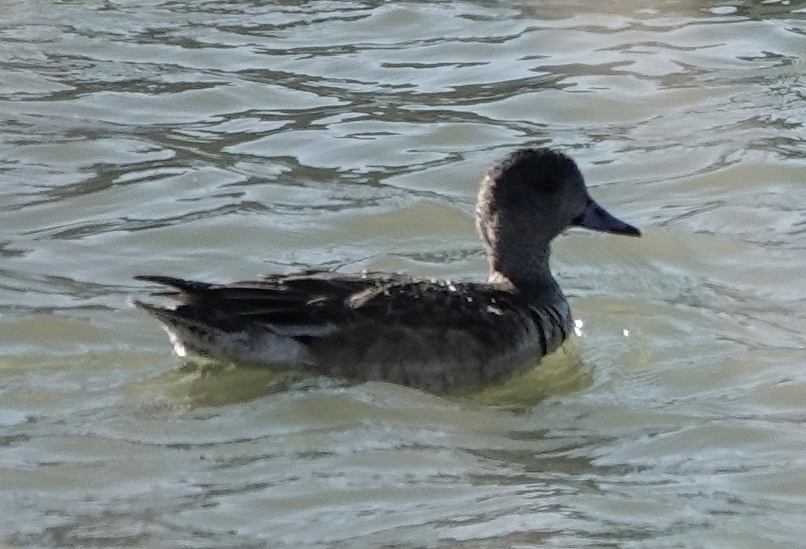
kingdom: Animalia
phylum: Chordata
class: Aves
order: Anseriformes
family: Anatidae
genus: Mareca
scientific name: Mareca americana
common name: American wigeon
